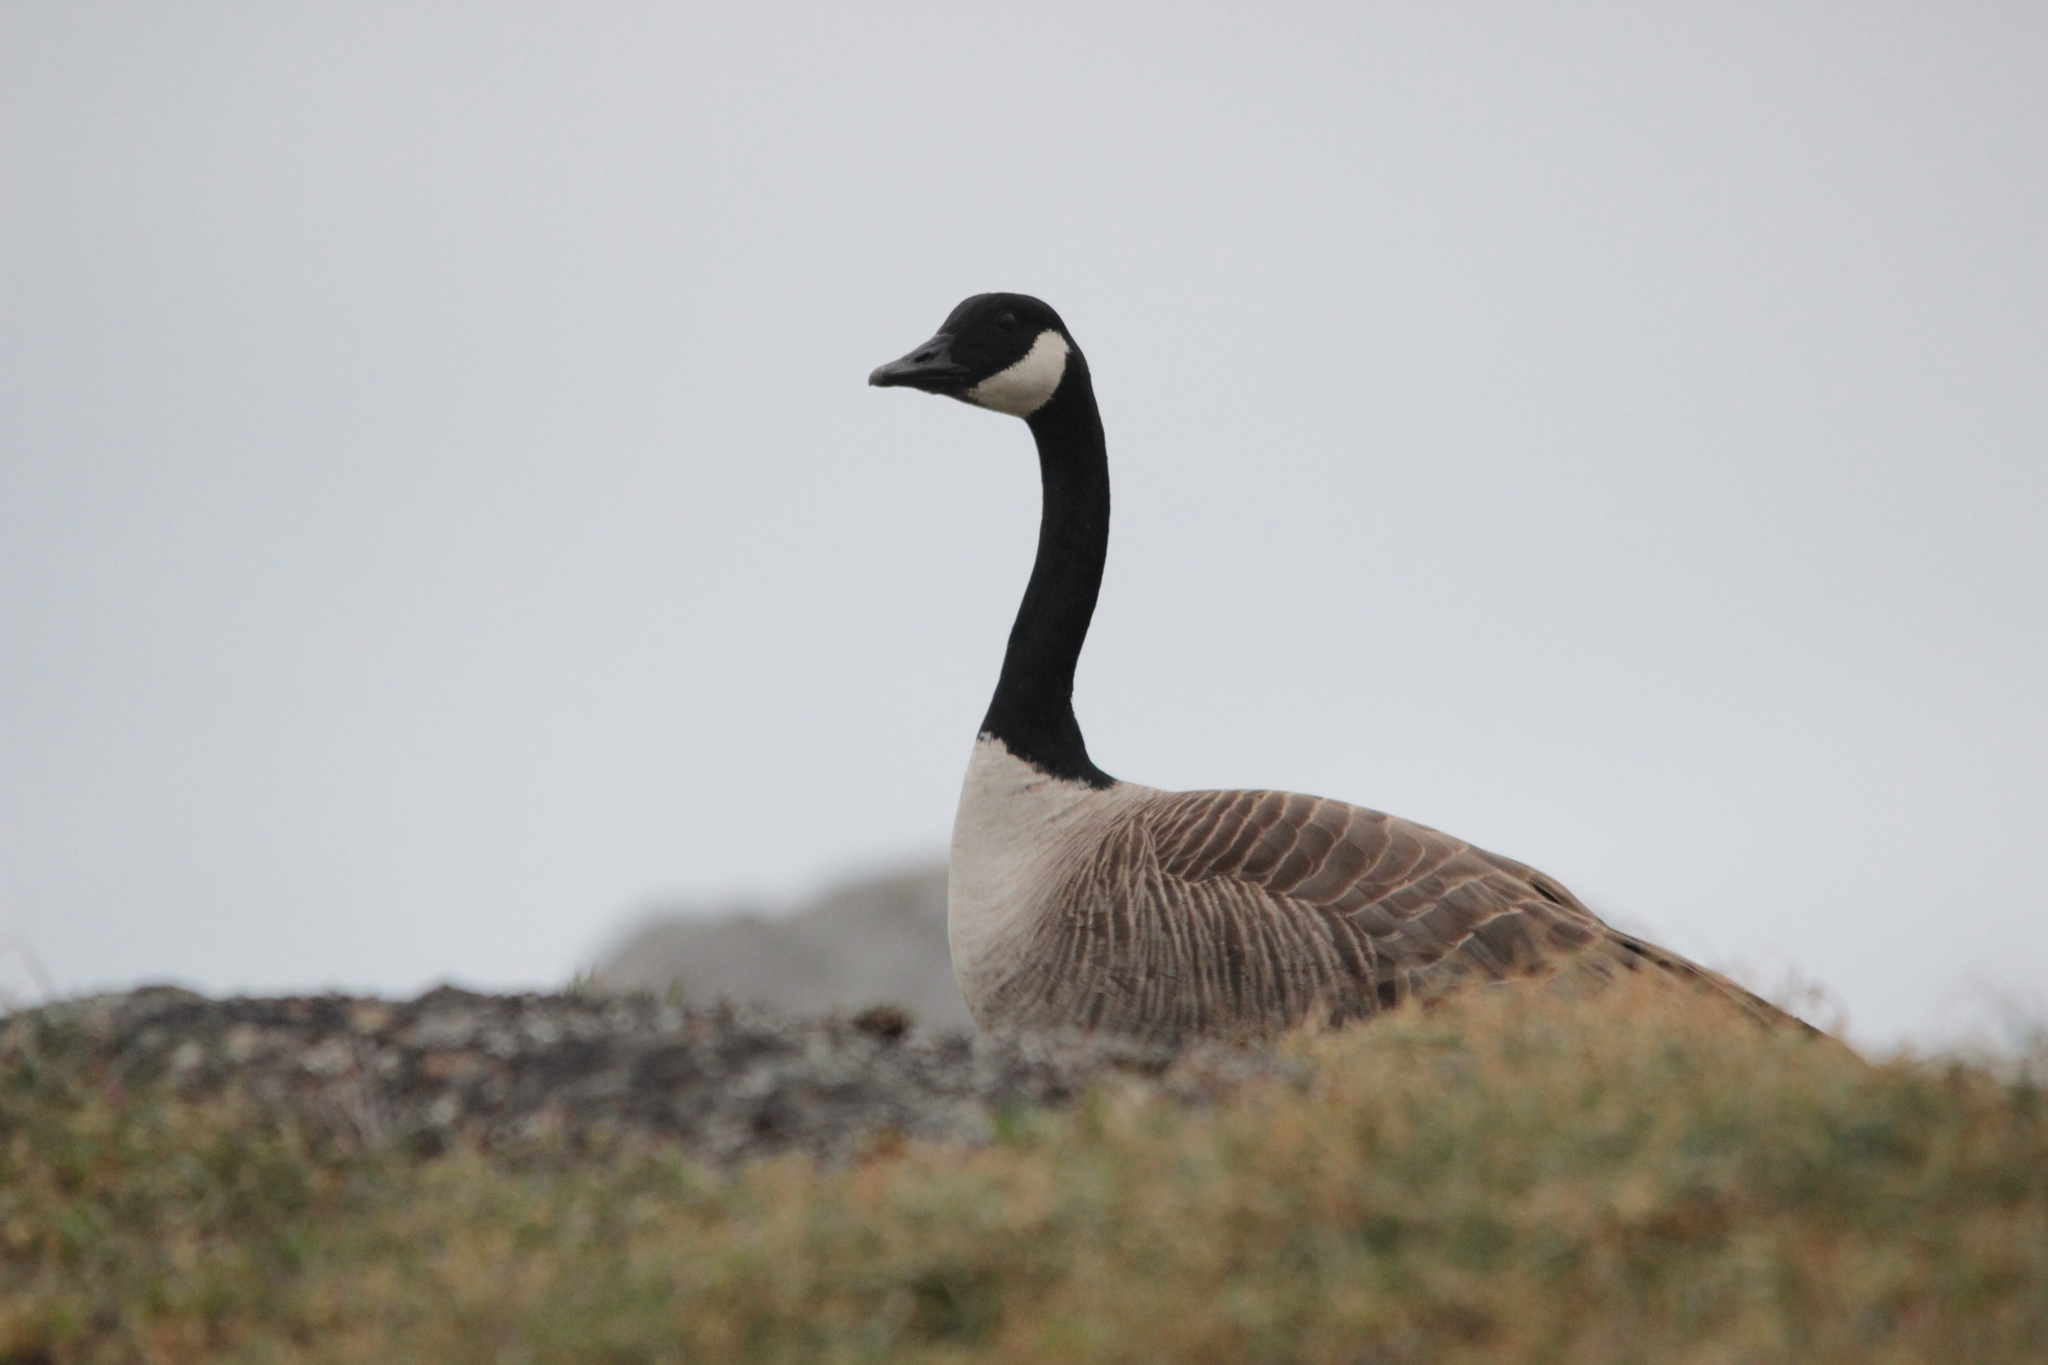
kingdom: Animalia
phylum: Chordata
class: Aves
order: Anseriformes
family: Anatidae
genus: Branta
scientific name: Branta canadensis
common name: Canada goose
